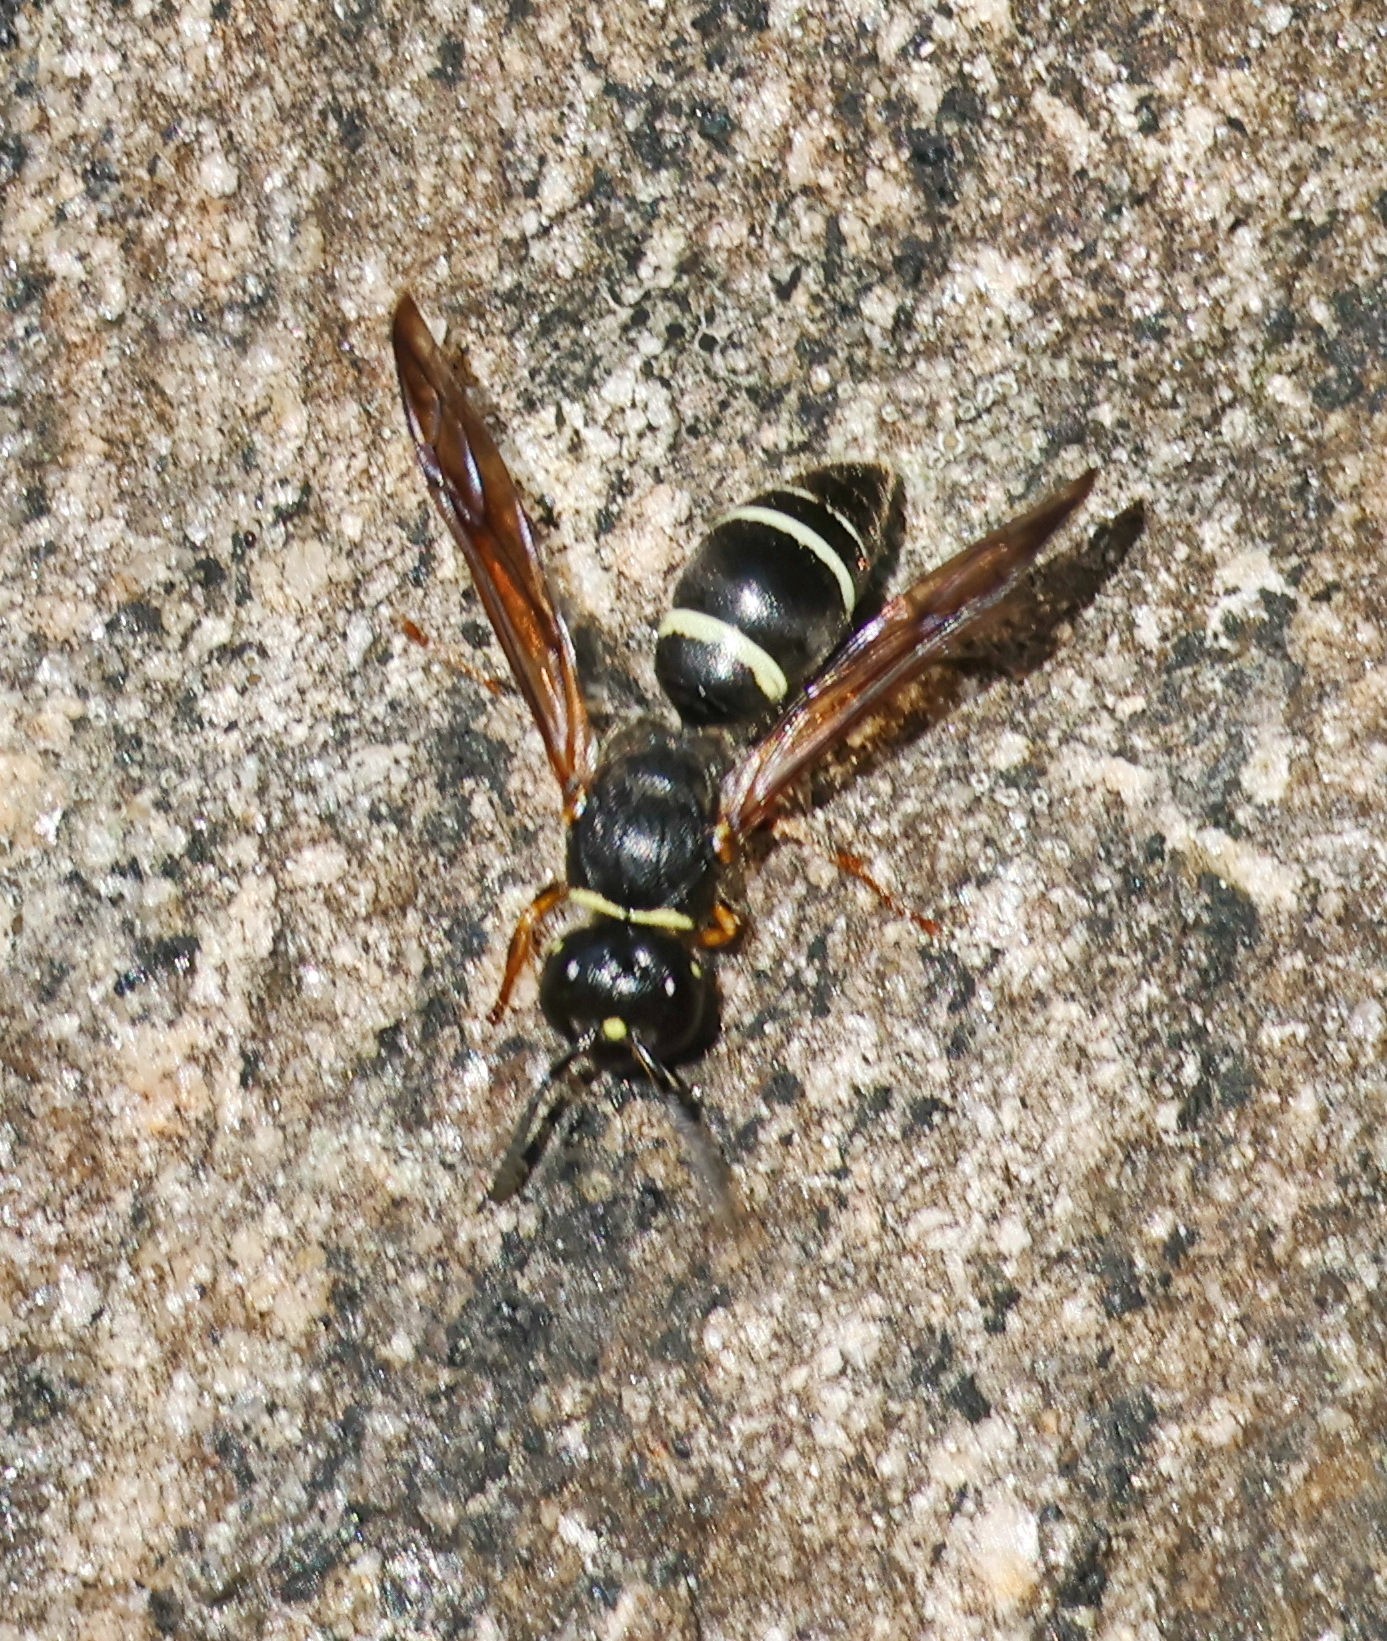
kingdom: Animalia
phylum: Arthropoda
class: Insecta
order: Hymenoptera
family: Vespidae
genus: Ancistrocerus
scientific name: Ancistrocerus albophaleratus
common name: White-banded potter wasp
